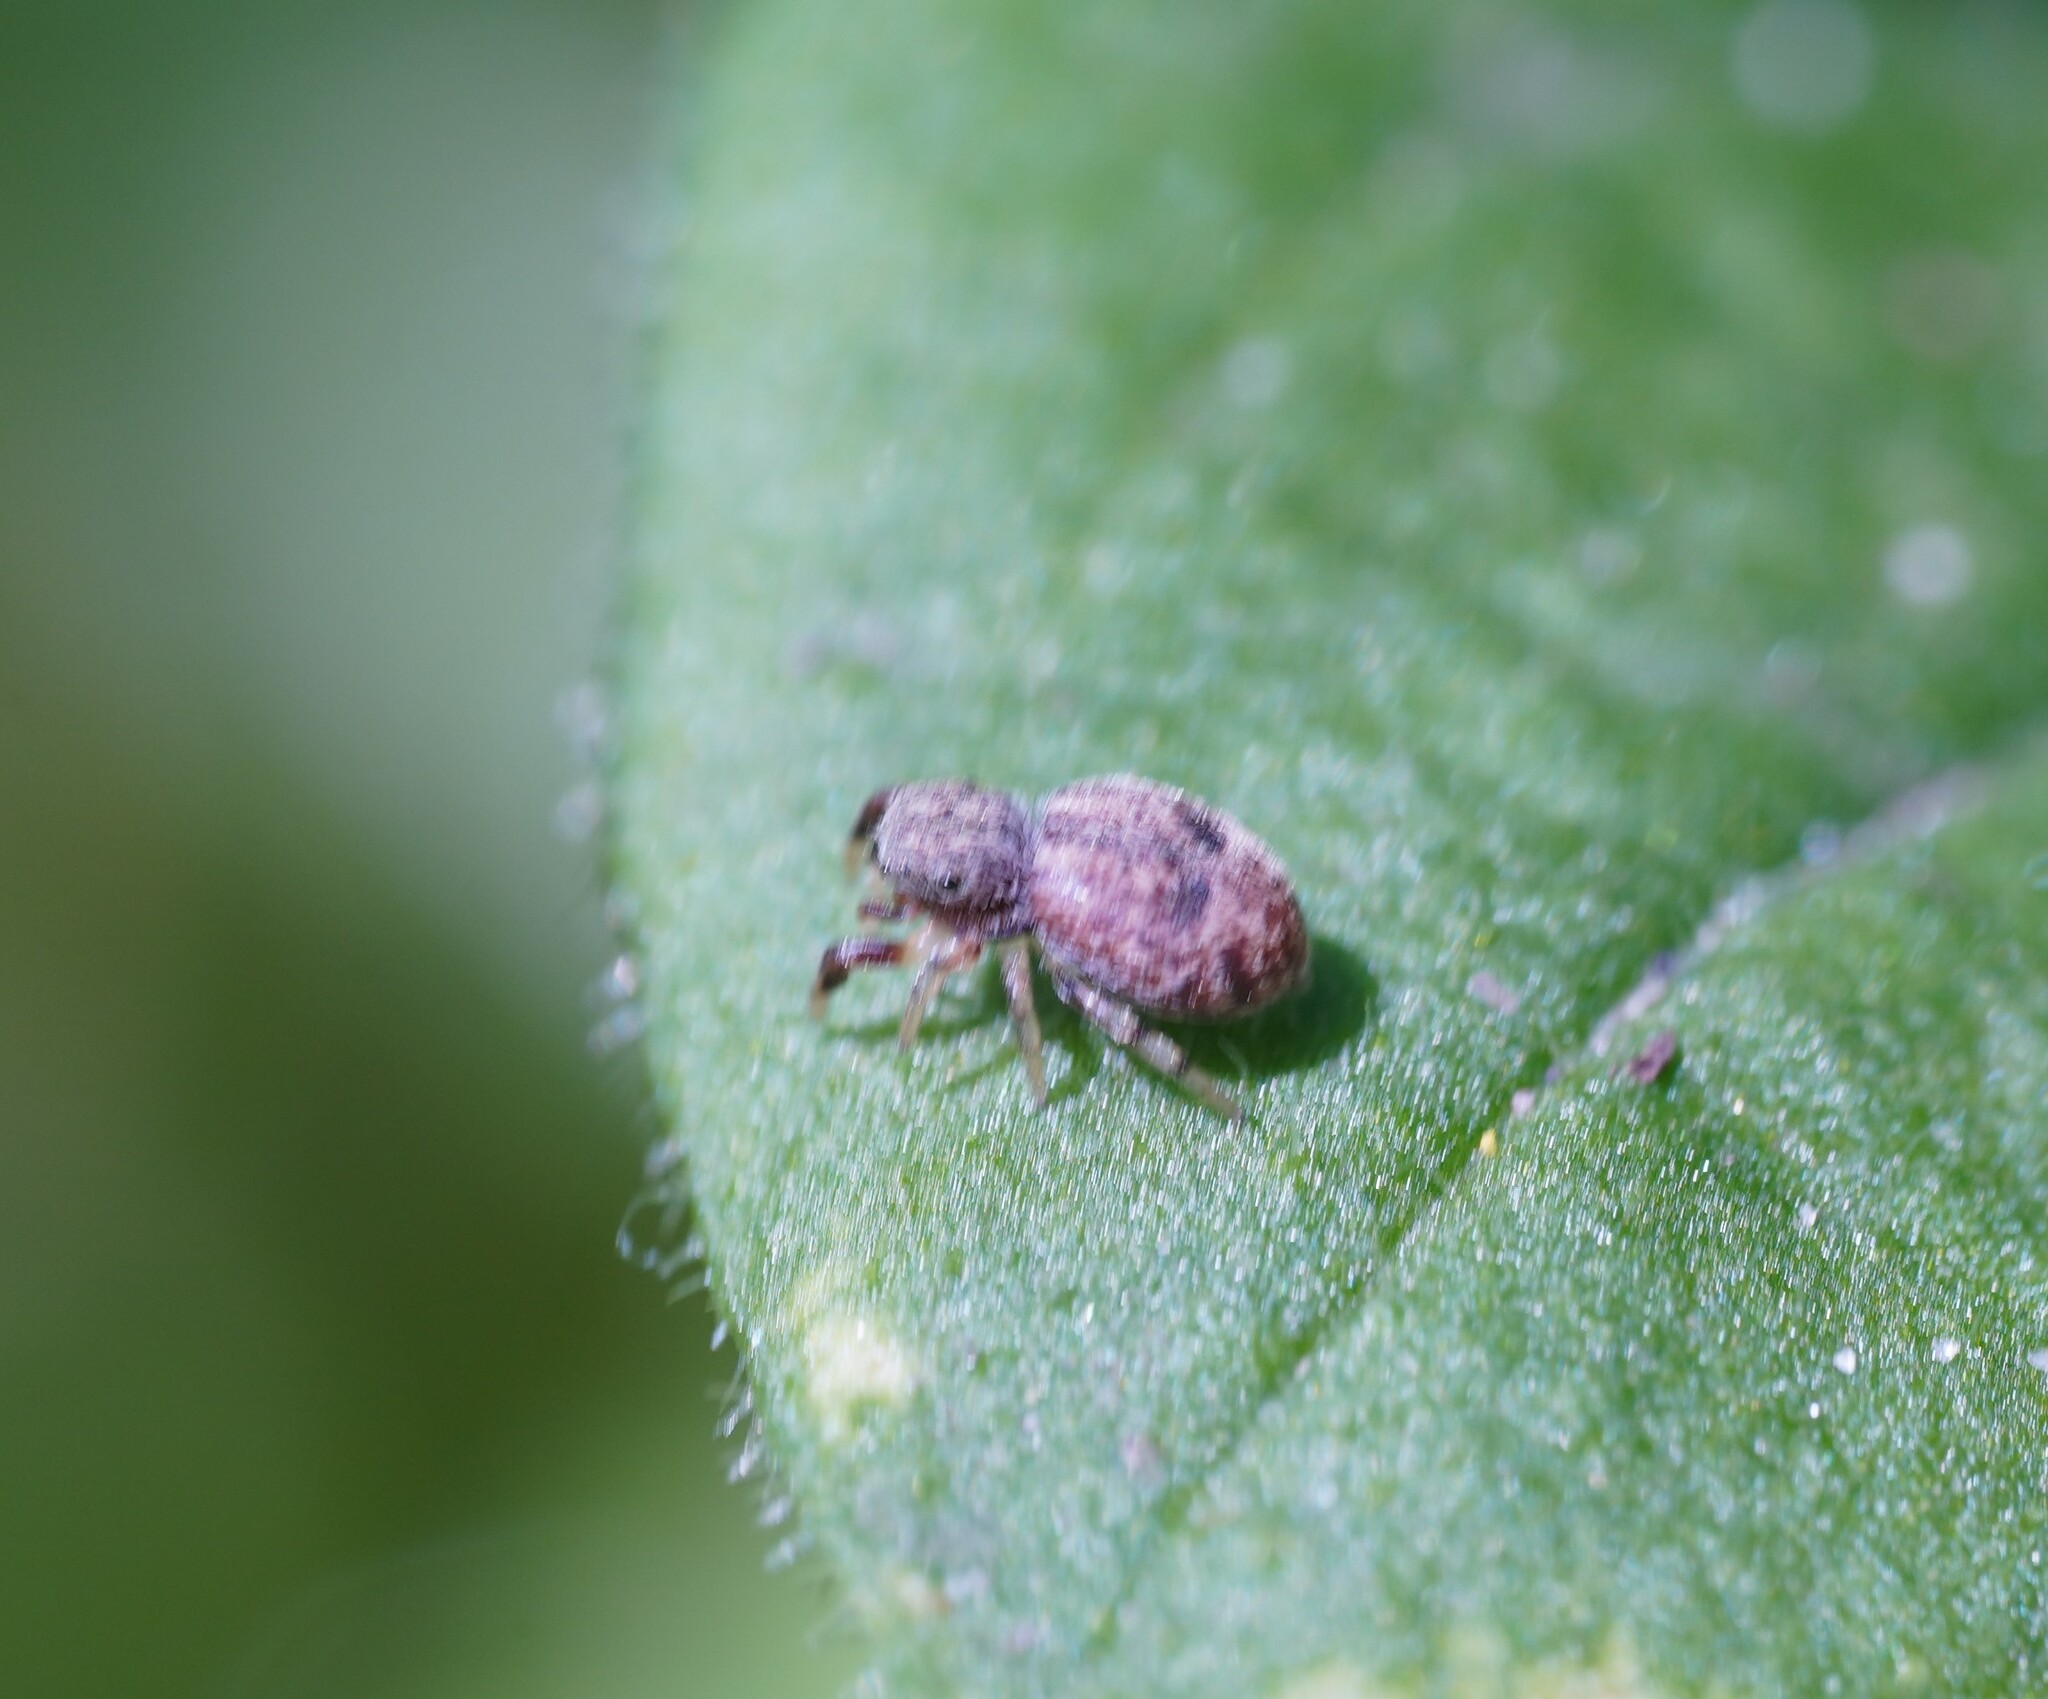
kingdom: Animalia
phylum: Arthropoda
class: Arachnida
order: Araneae
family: Salticidae
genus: Ballus
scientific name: Ballus chalybeius
